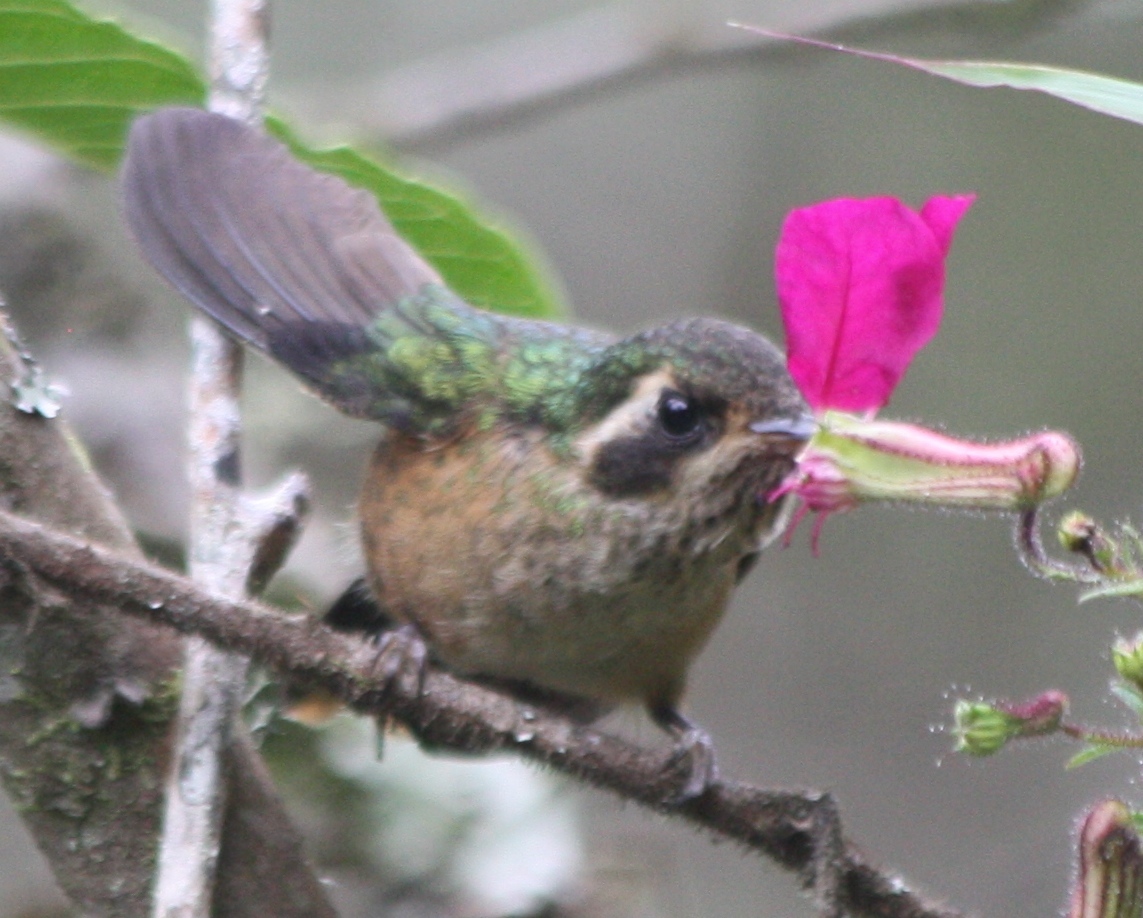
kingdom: Animalia
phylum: Chordata
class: Aves
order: Apodiformes
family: Trochilidae
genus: Adelomyia
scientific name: Adelomyia melanogenys
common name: Speckled hummingbird
